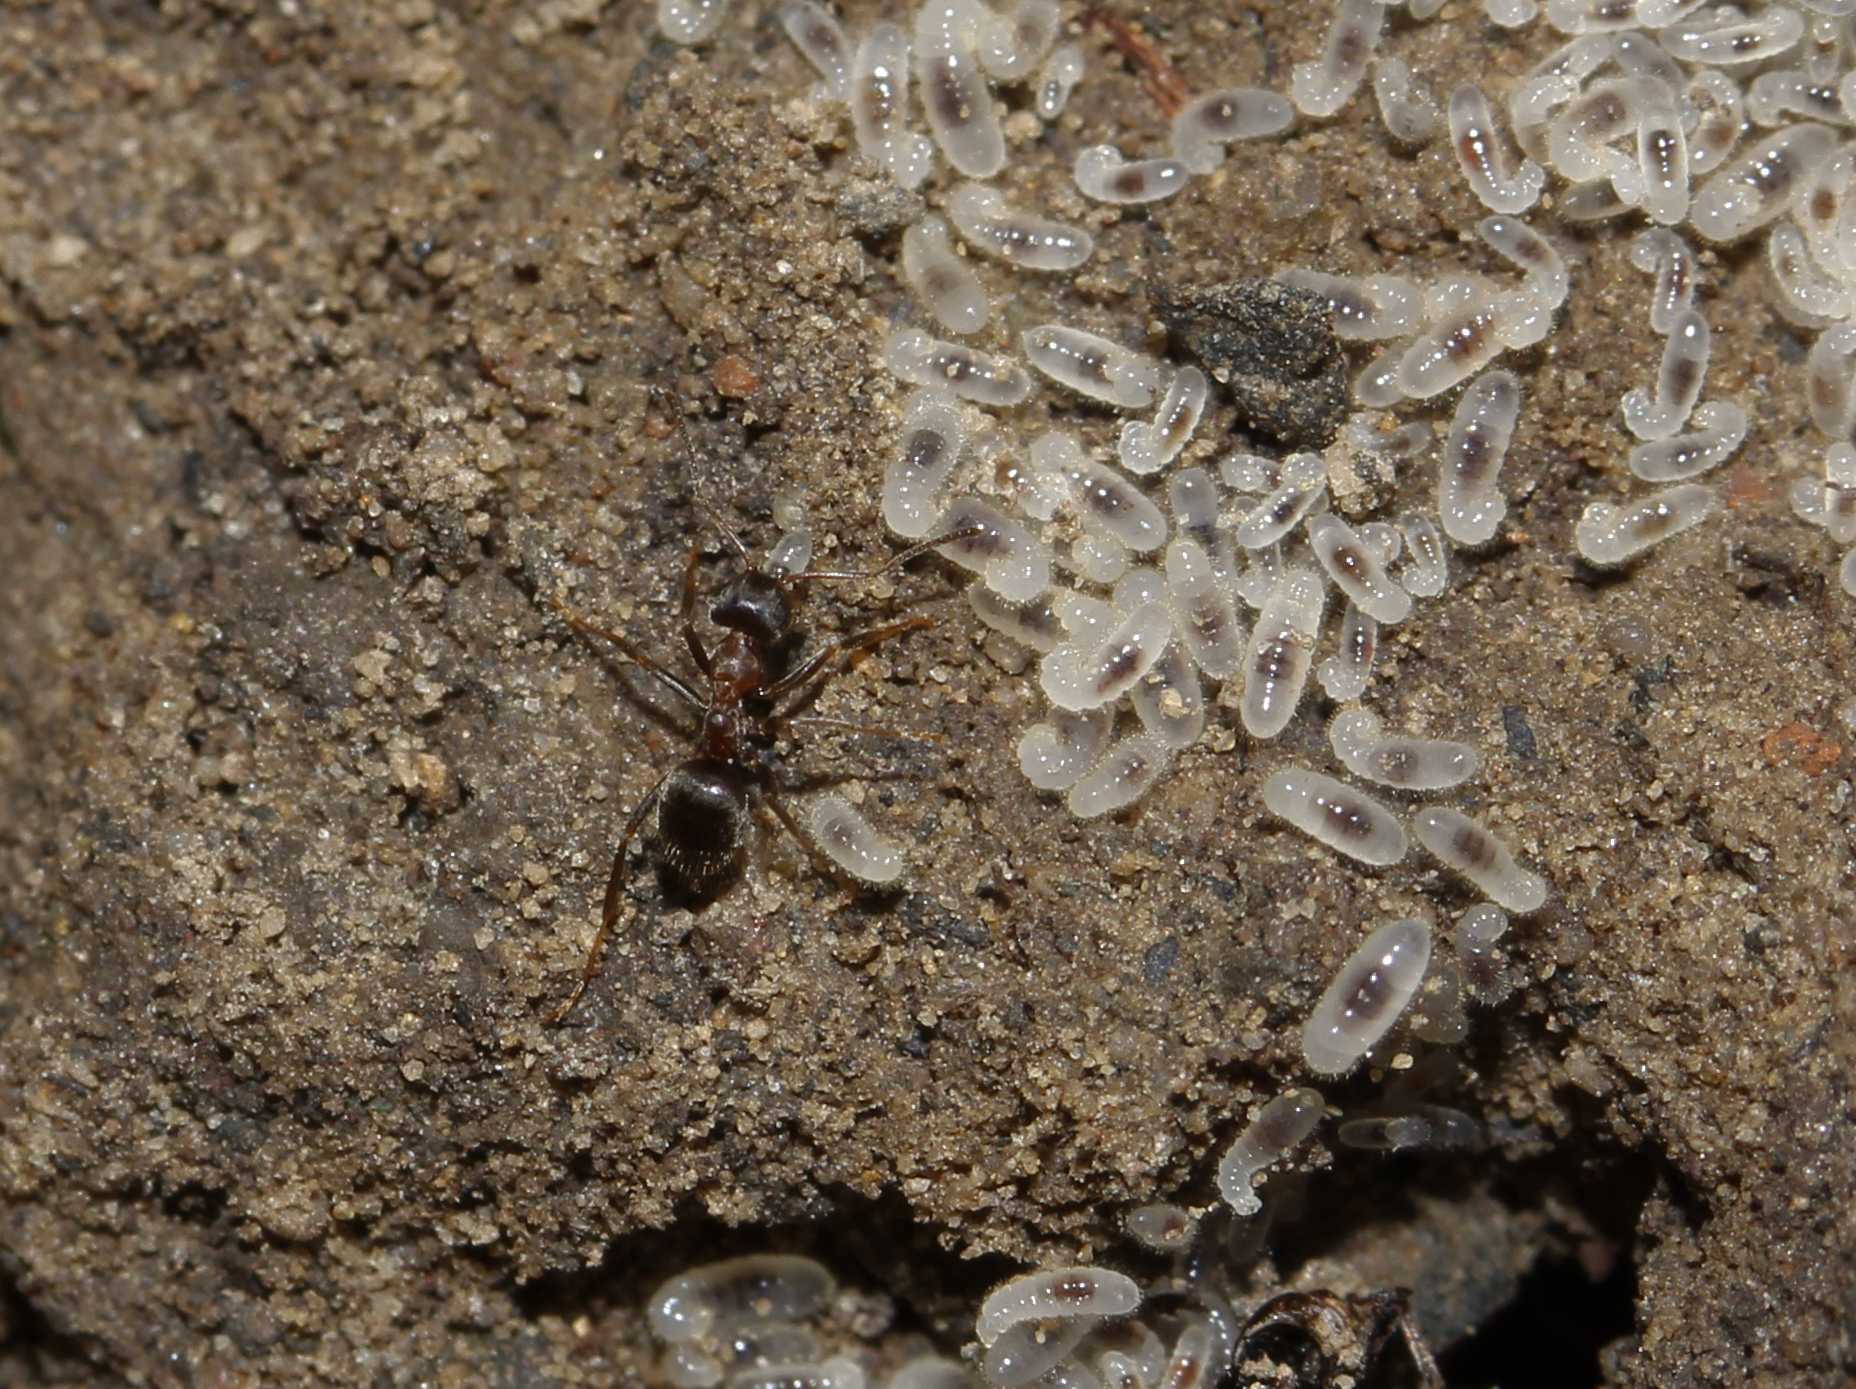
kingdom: Animalia
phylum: Arthropoda
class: Insecta
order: Hymenoptera
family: Formicidae
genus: Lasius
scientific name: Lasius emarginatus
